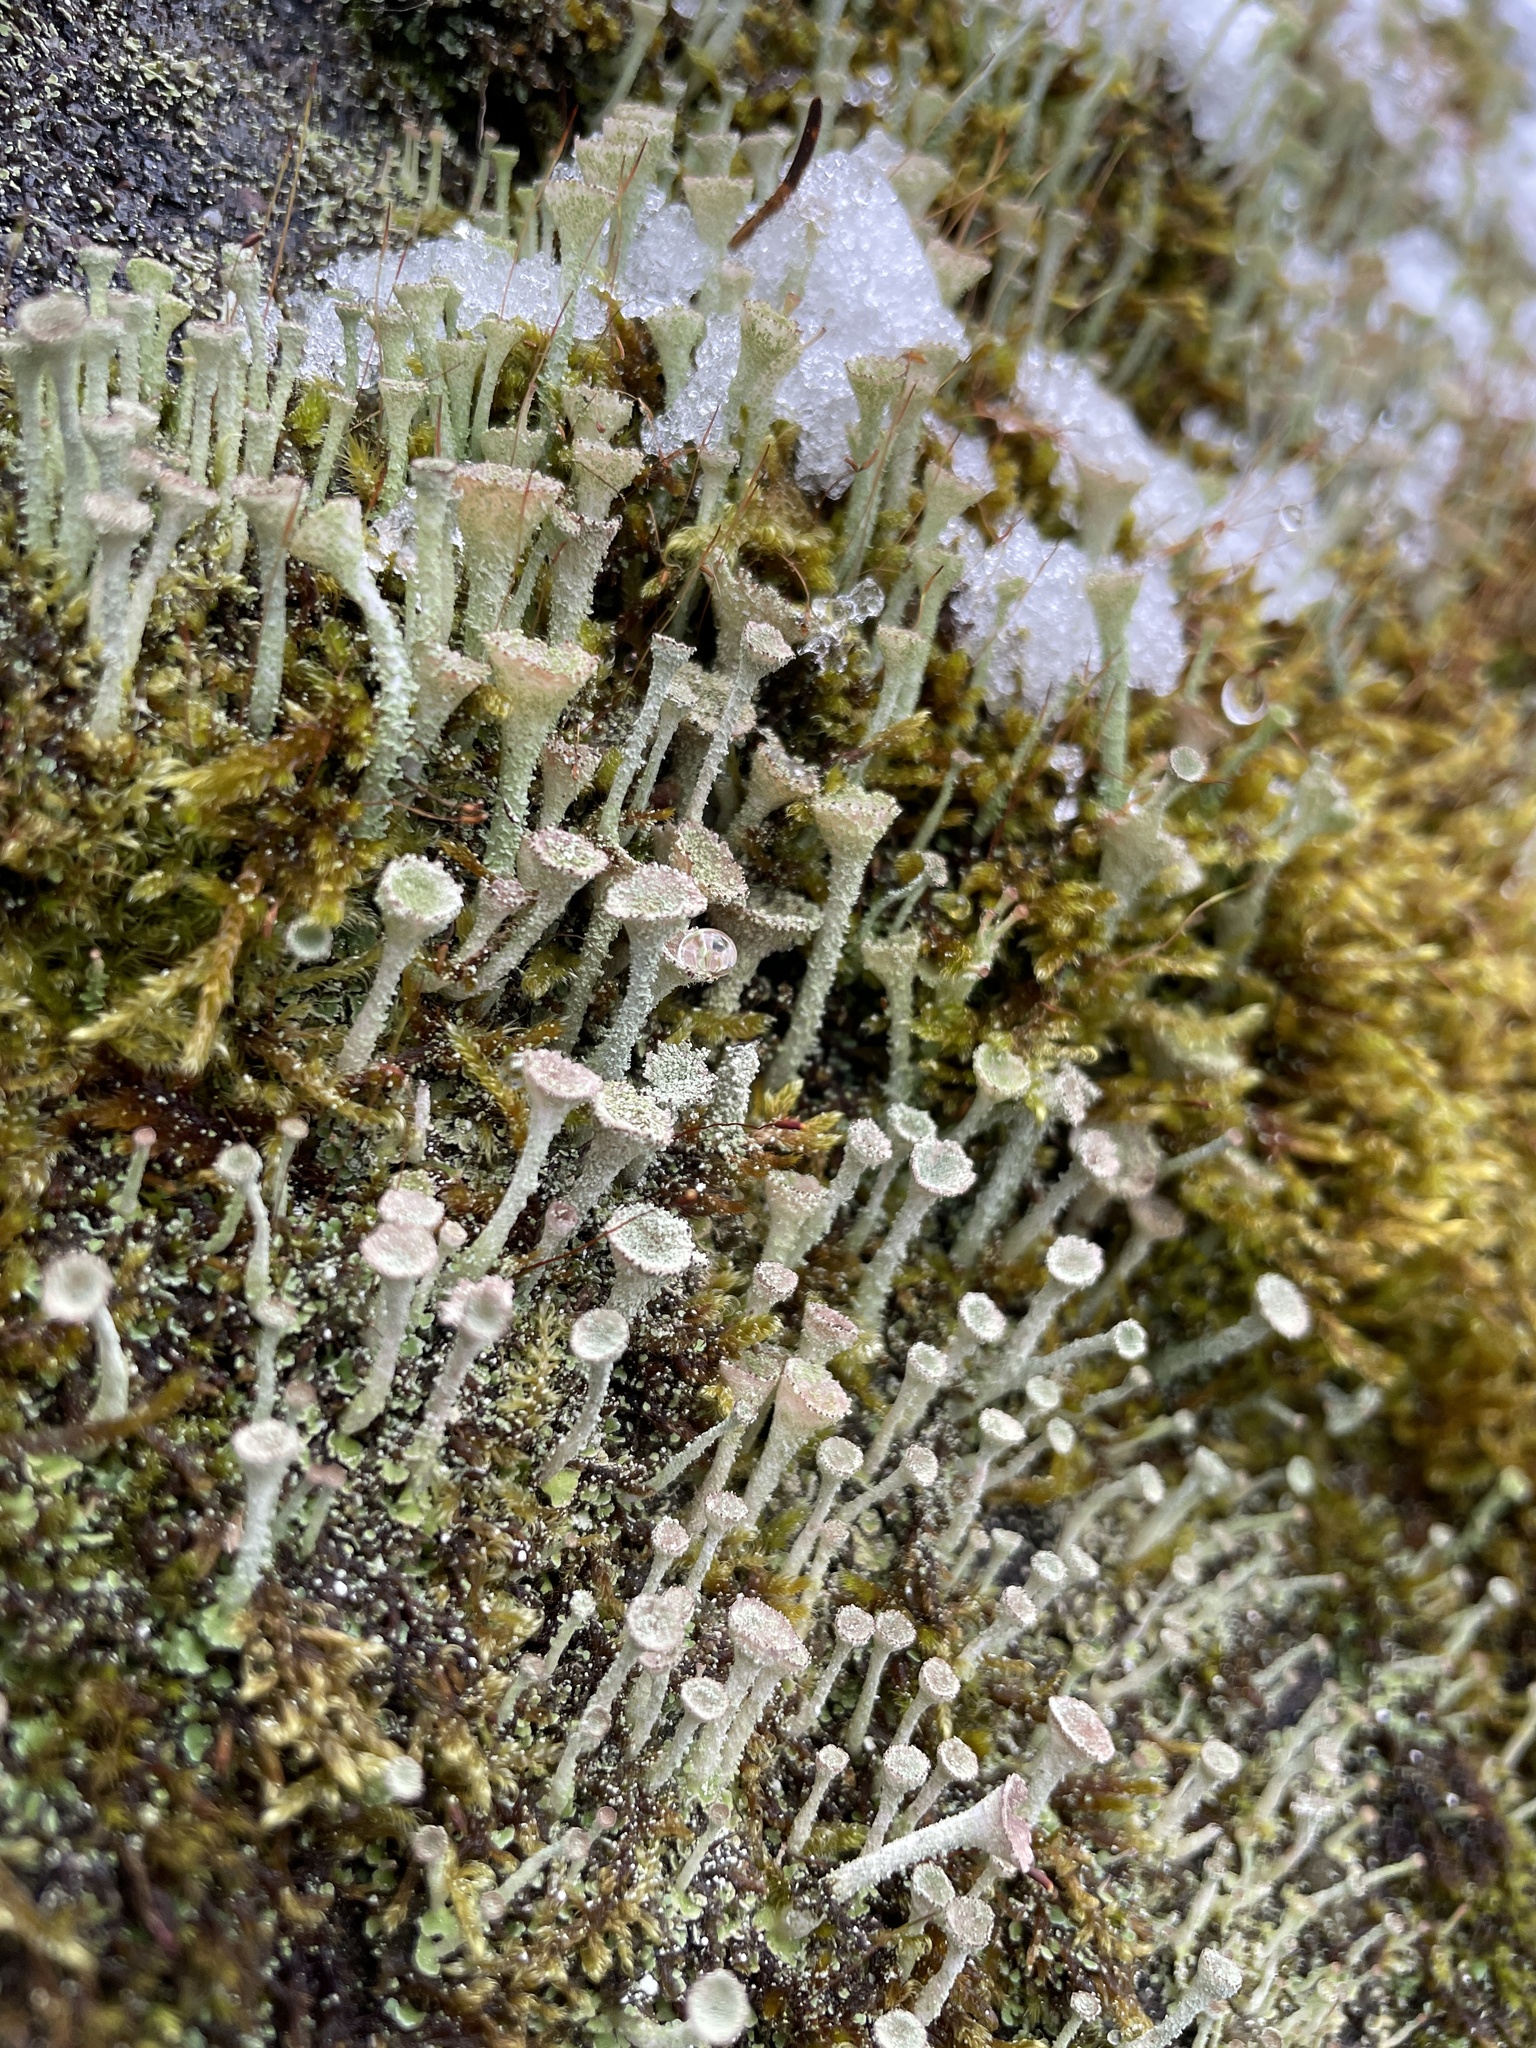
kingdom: Fungi
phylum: Ascomycota
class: Lecanoromycetes
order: Lecanorales
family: Cladoniaceae
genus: Cladonia
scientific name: Cladonia fimbriata
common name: Powdered trumpet lichen
